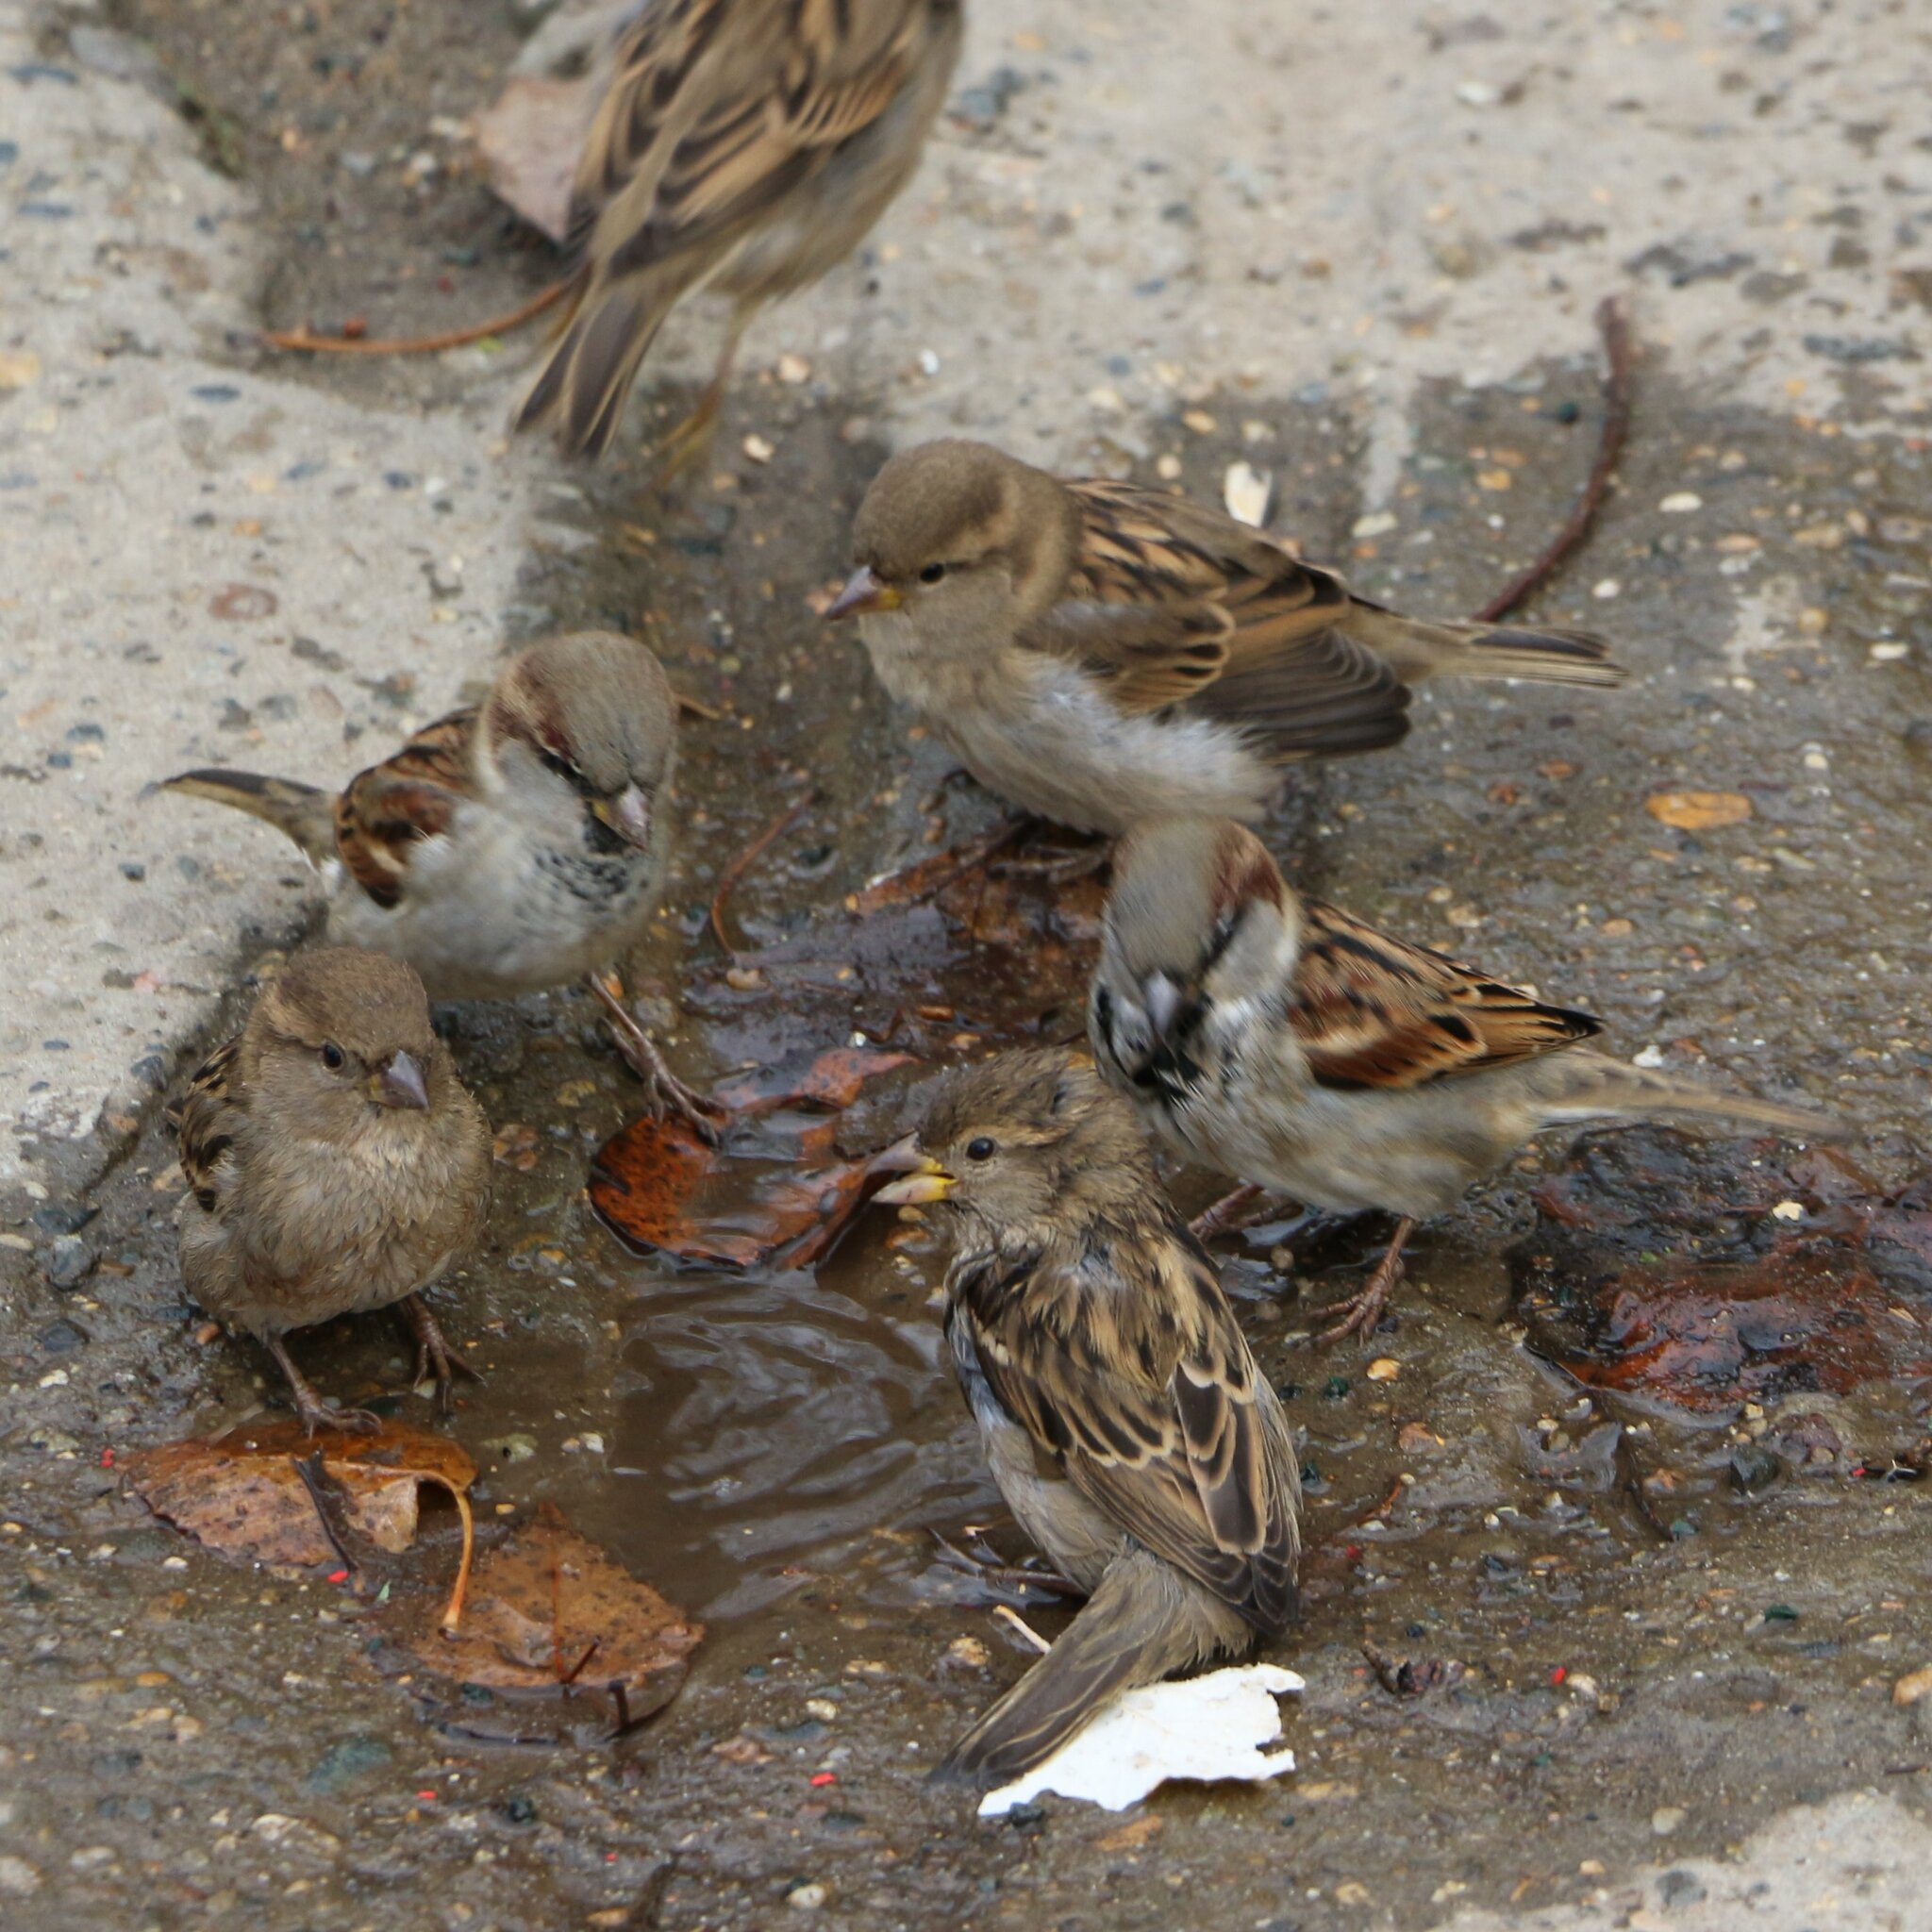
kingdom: Animalia
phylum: Chordata
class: Aves
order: Passeriformes
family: Passeridae
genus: Passer
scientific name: Passer domesticus
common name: House sparrow
